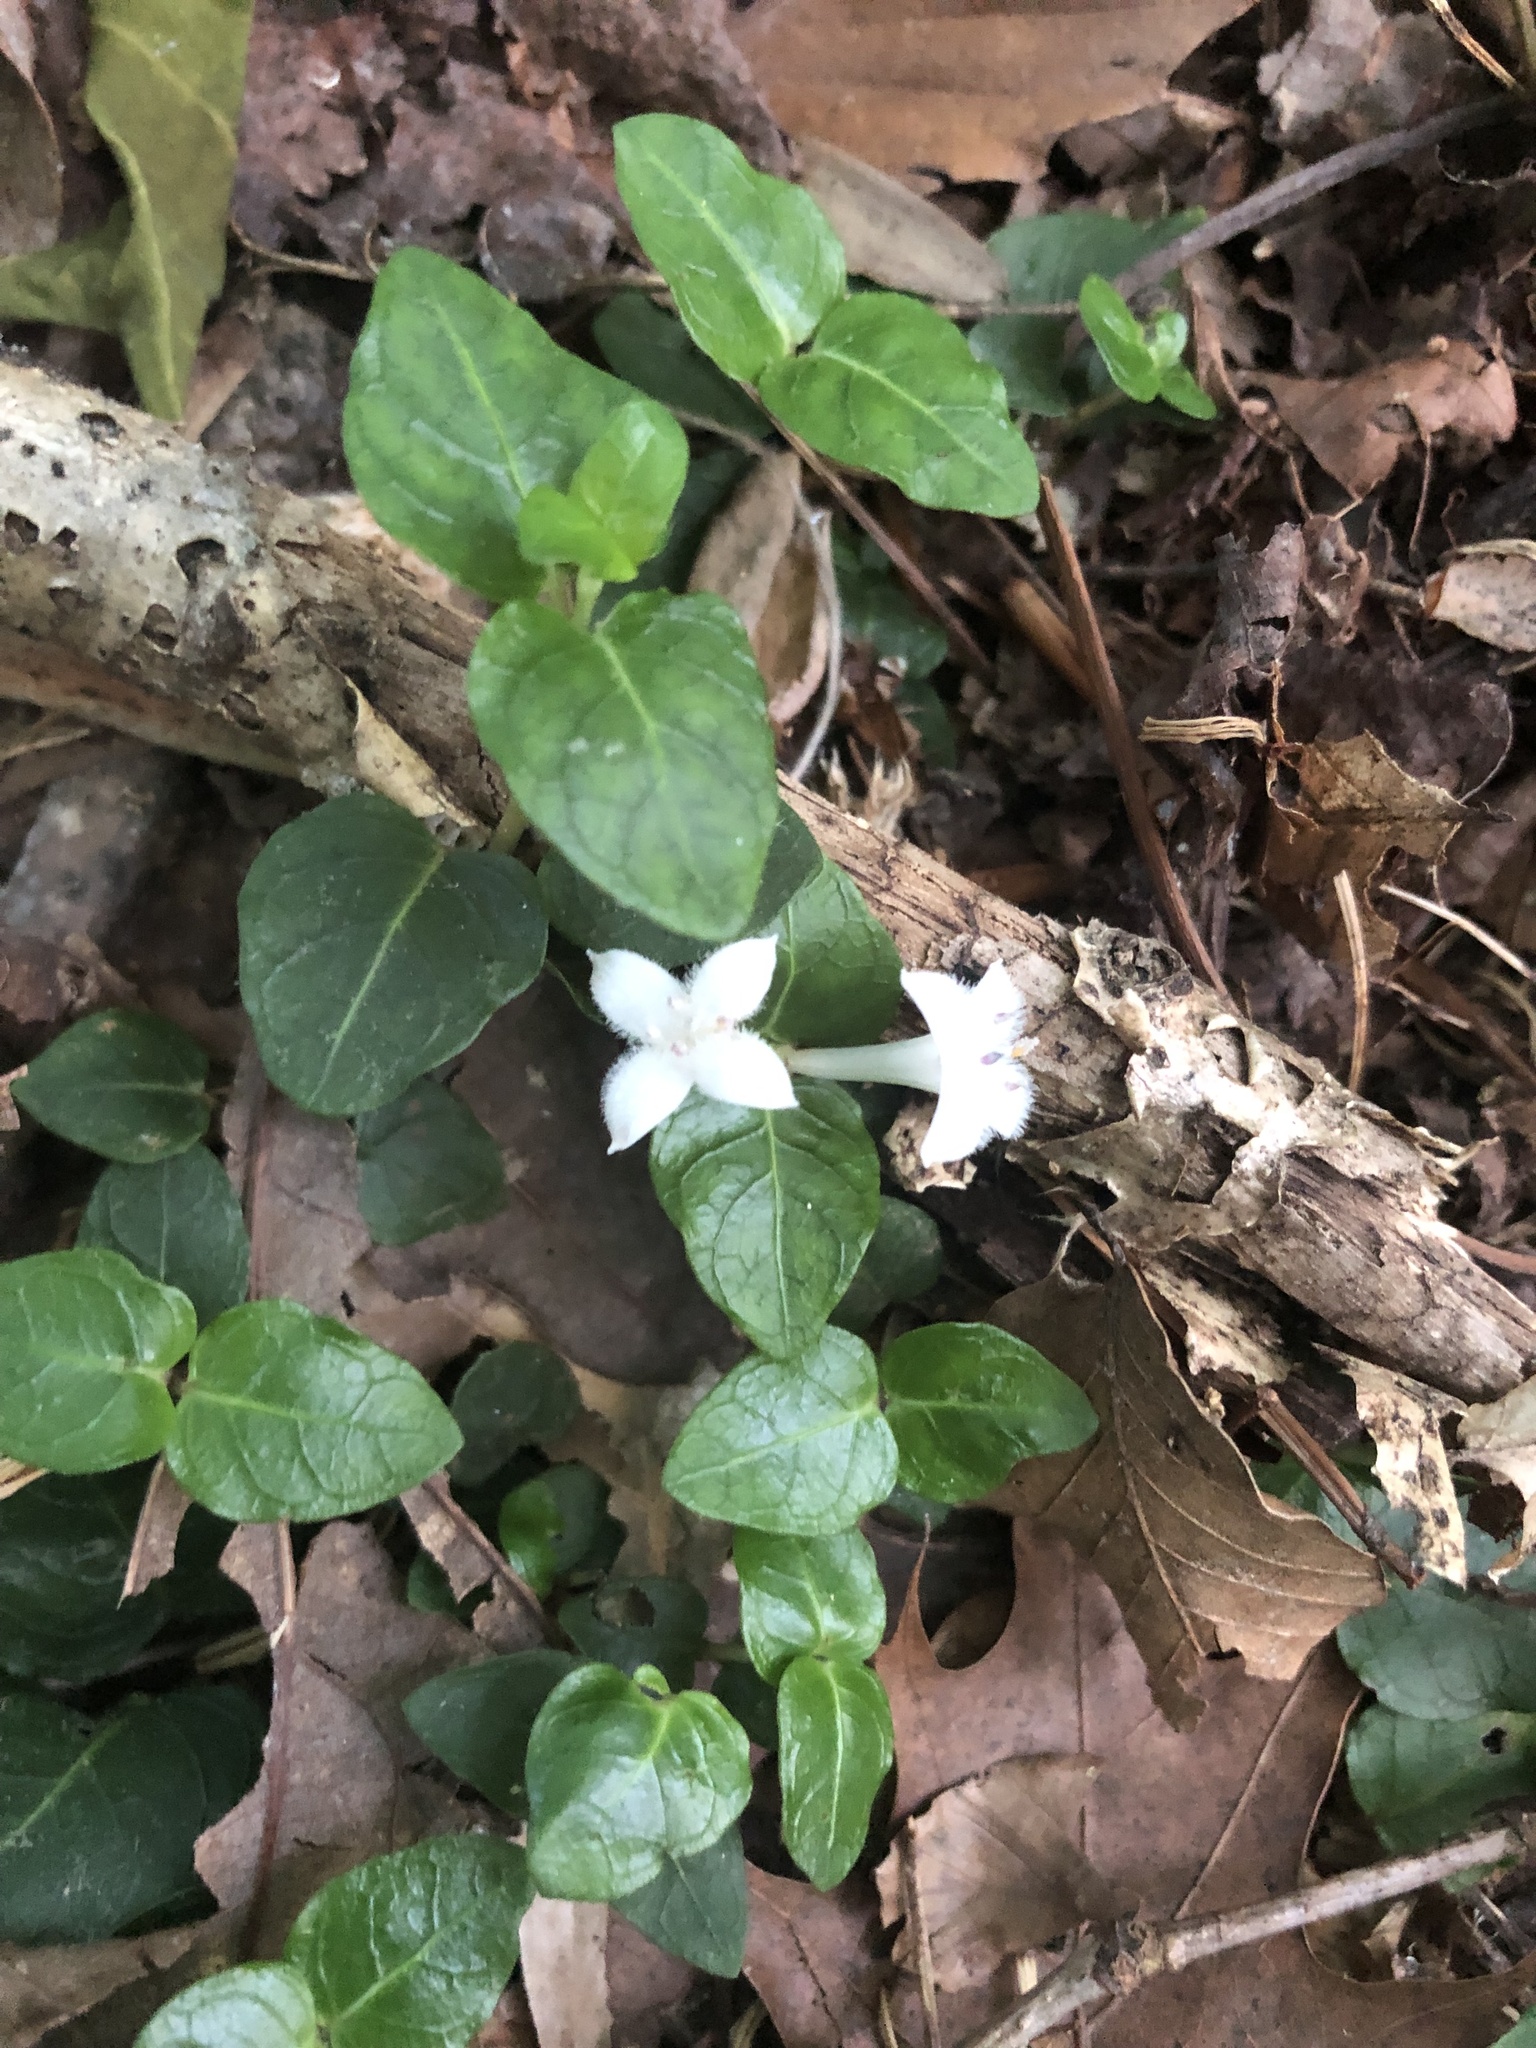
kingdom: Plantae
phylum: Tracheophyta
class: Magnoliopsida
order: Gentianales
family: Rubiaceae
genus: Mitchella
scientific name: Mitchella repens
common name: Partridge-berry
